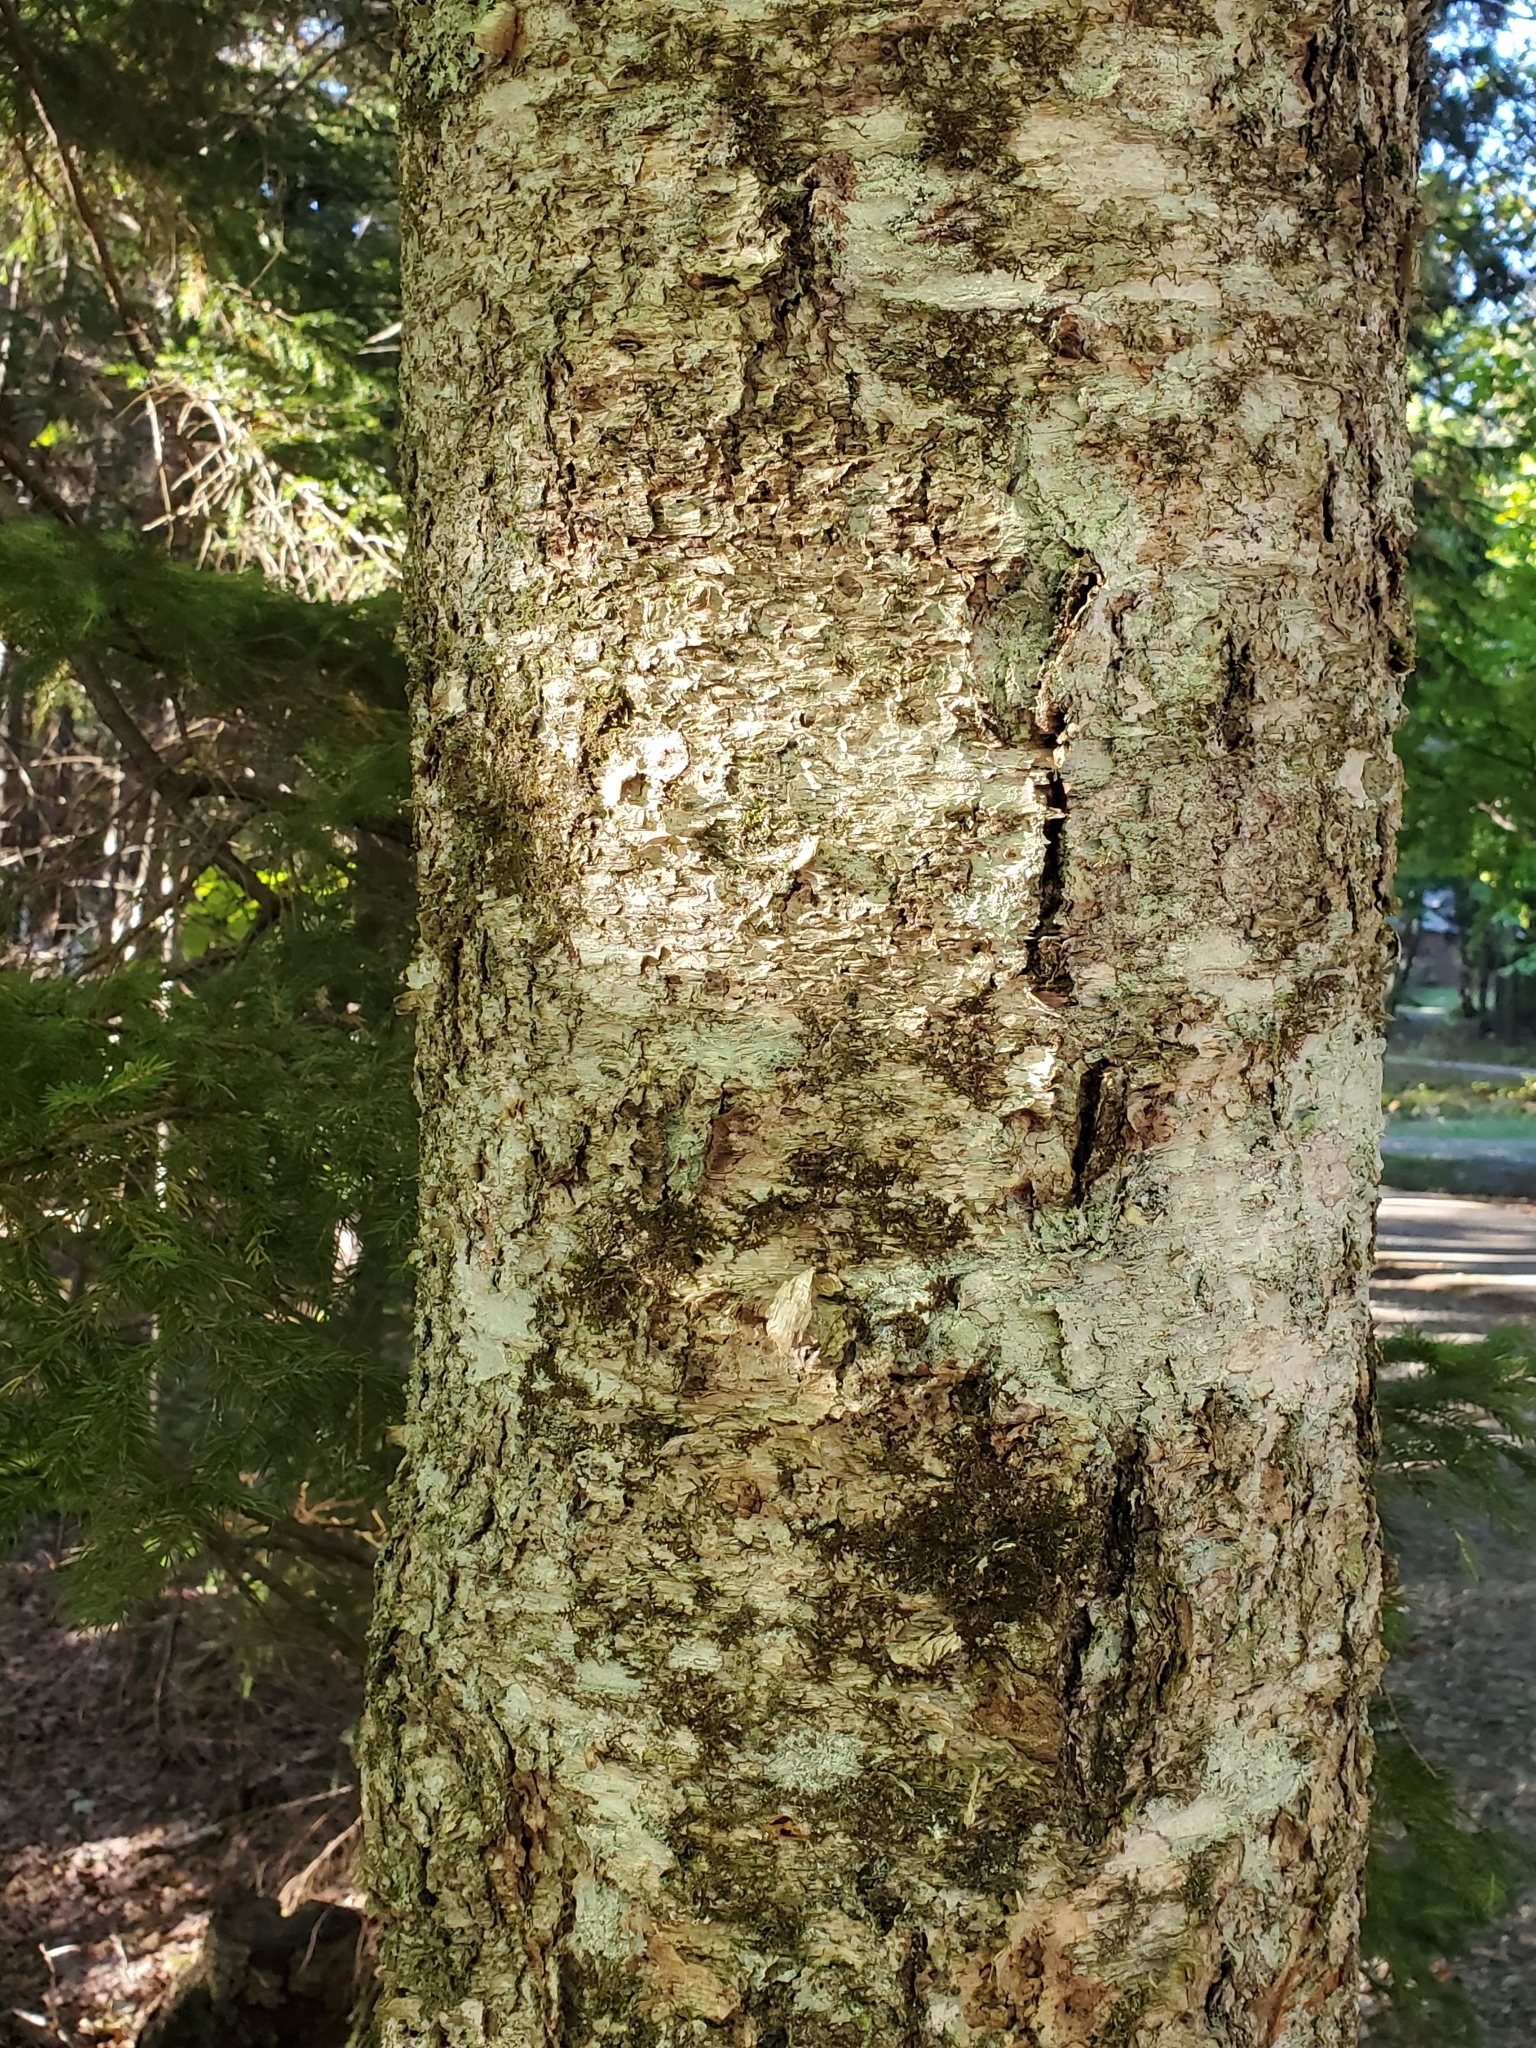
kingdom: Plantae
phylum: Tracheophyta
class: Magnoliopsida
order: Fagales
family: Betulaceae
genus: Betula
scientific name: Betula alleghaniensis
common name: Yellow birch
